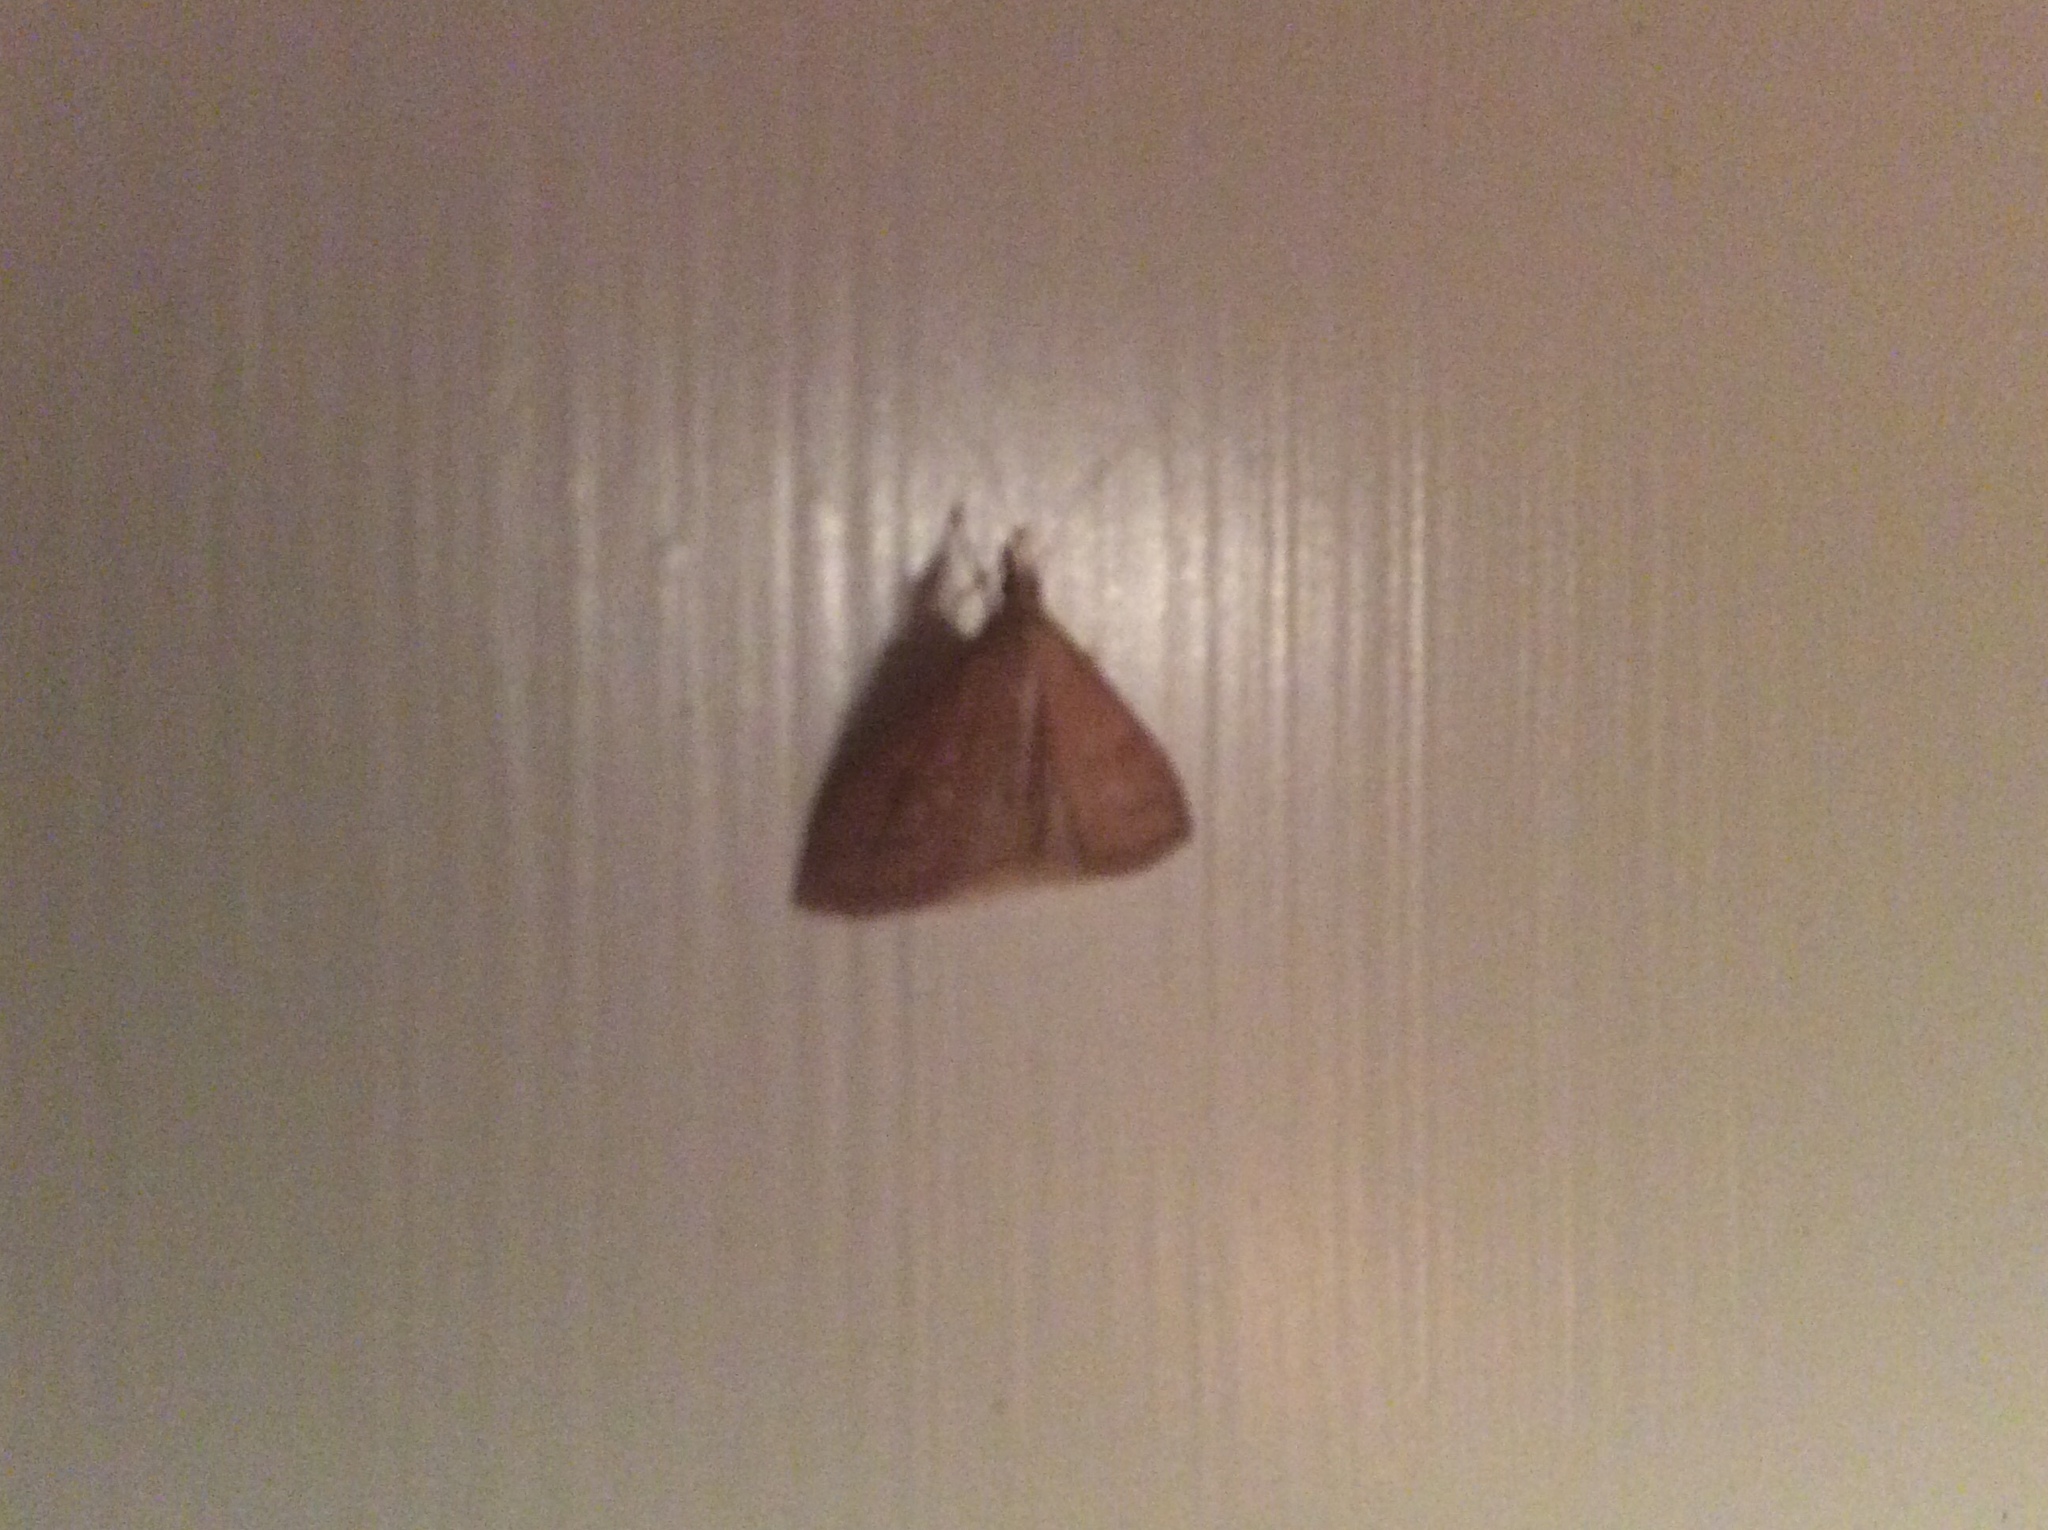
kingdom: Animalia
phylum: Arthropoda
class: Insecta
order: Lepidoptera
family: Crambidae
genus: Udea
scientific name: Udea rubigalis
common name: Celery leaftier moth
